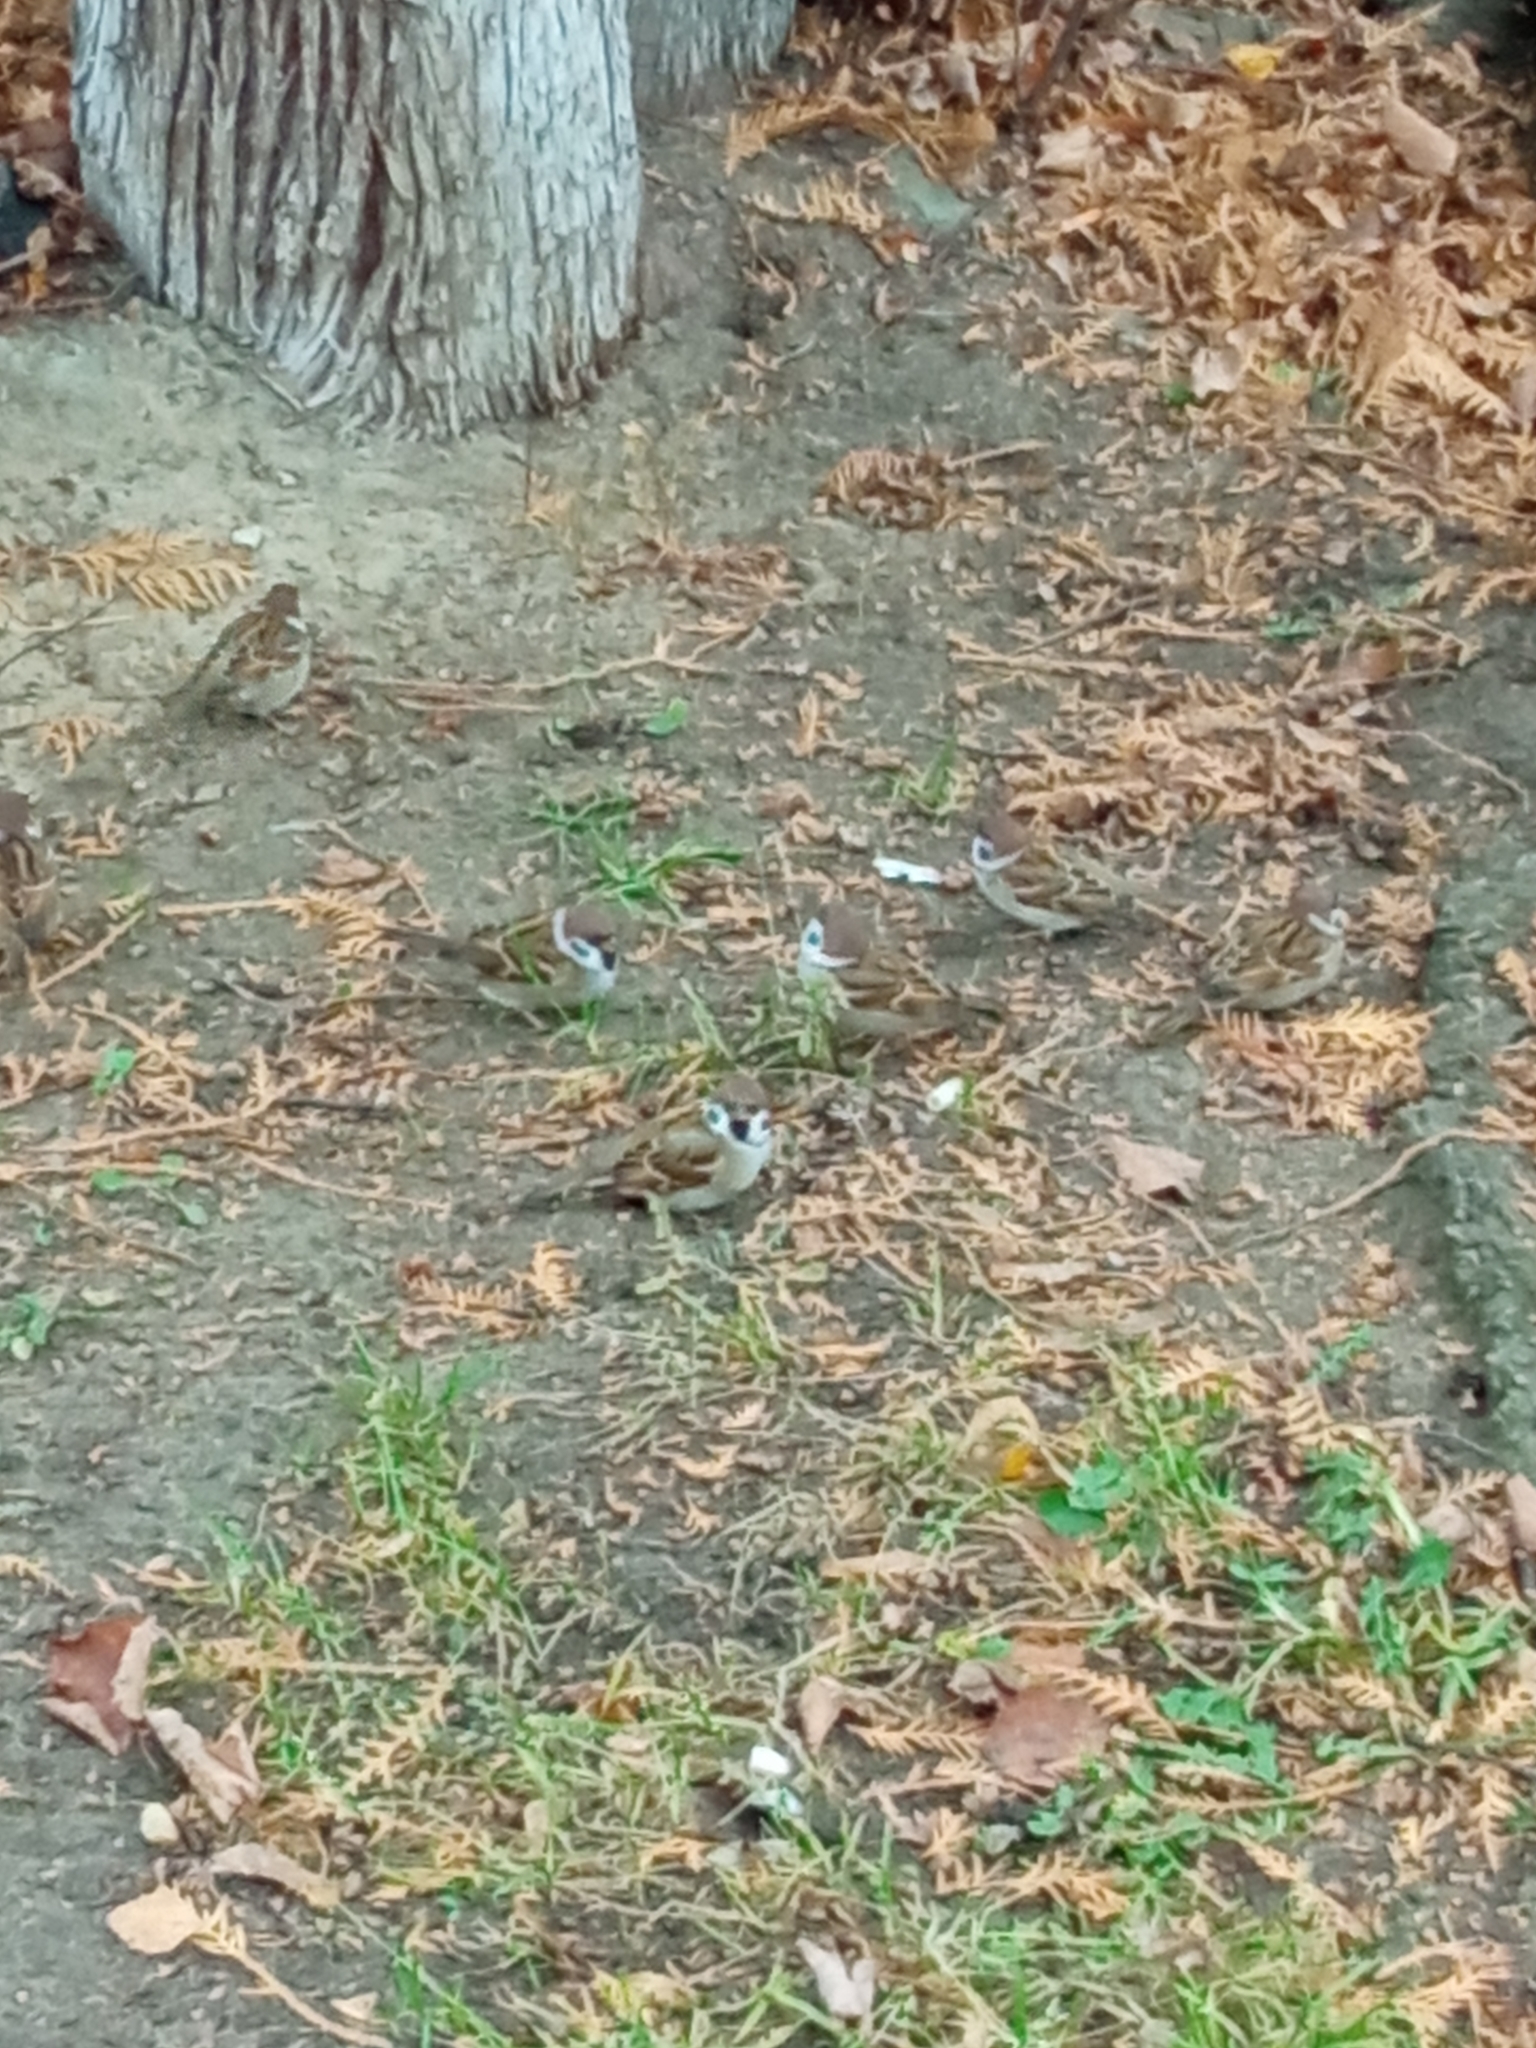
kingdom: Animalia
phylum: Chordata
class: Aves
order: Passeriformes
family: Passeridae
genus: Passer
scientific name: Passer montanus
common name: Eurasian tree sparrow
